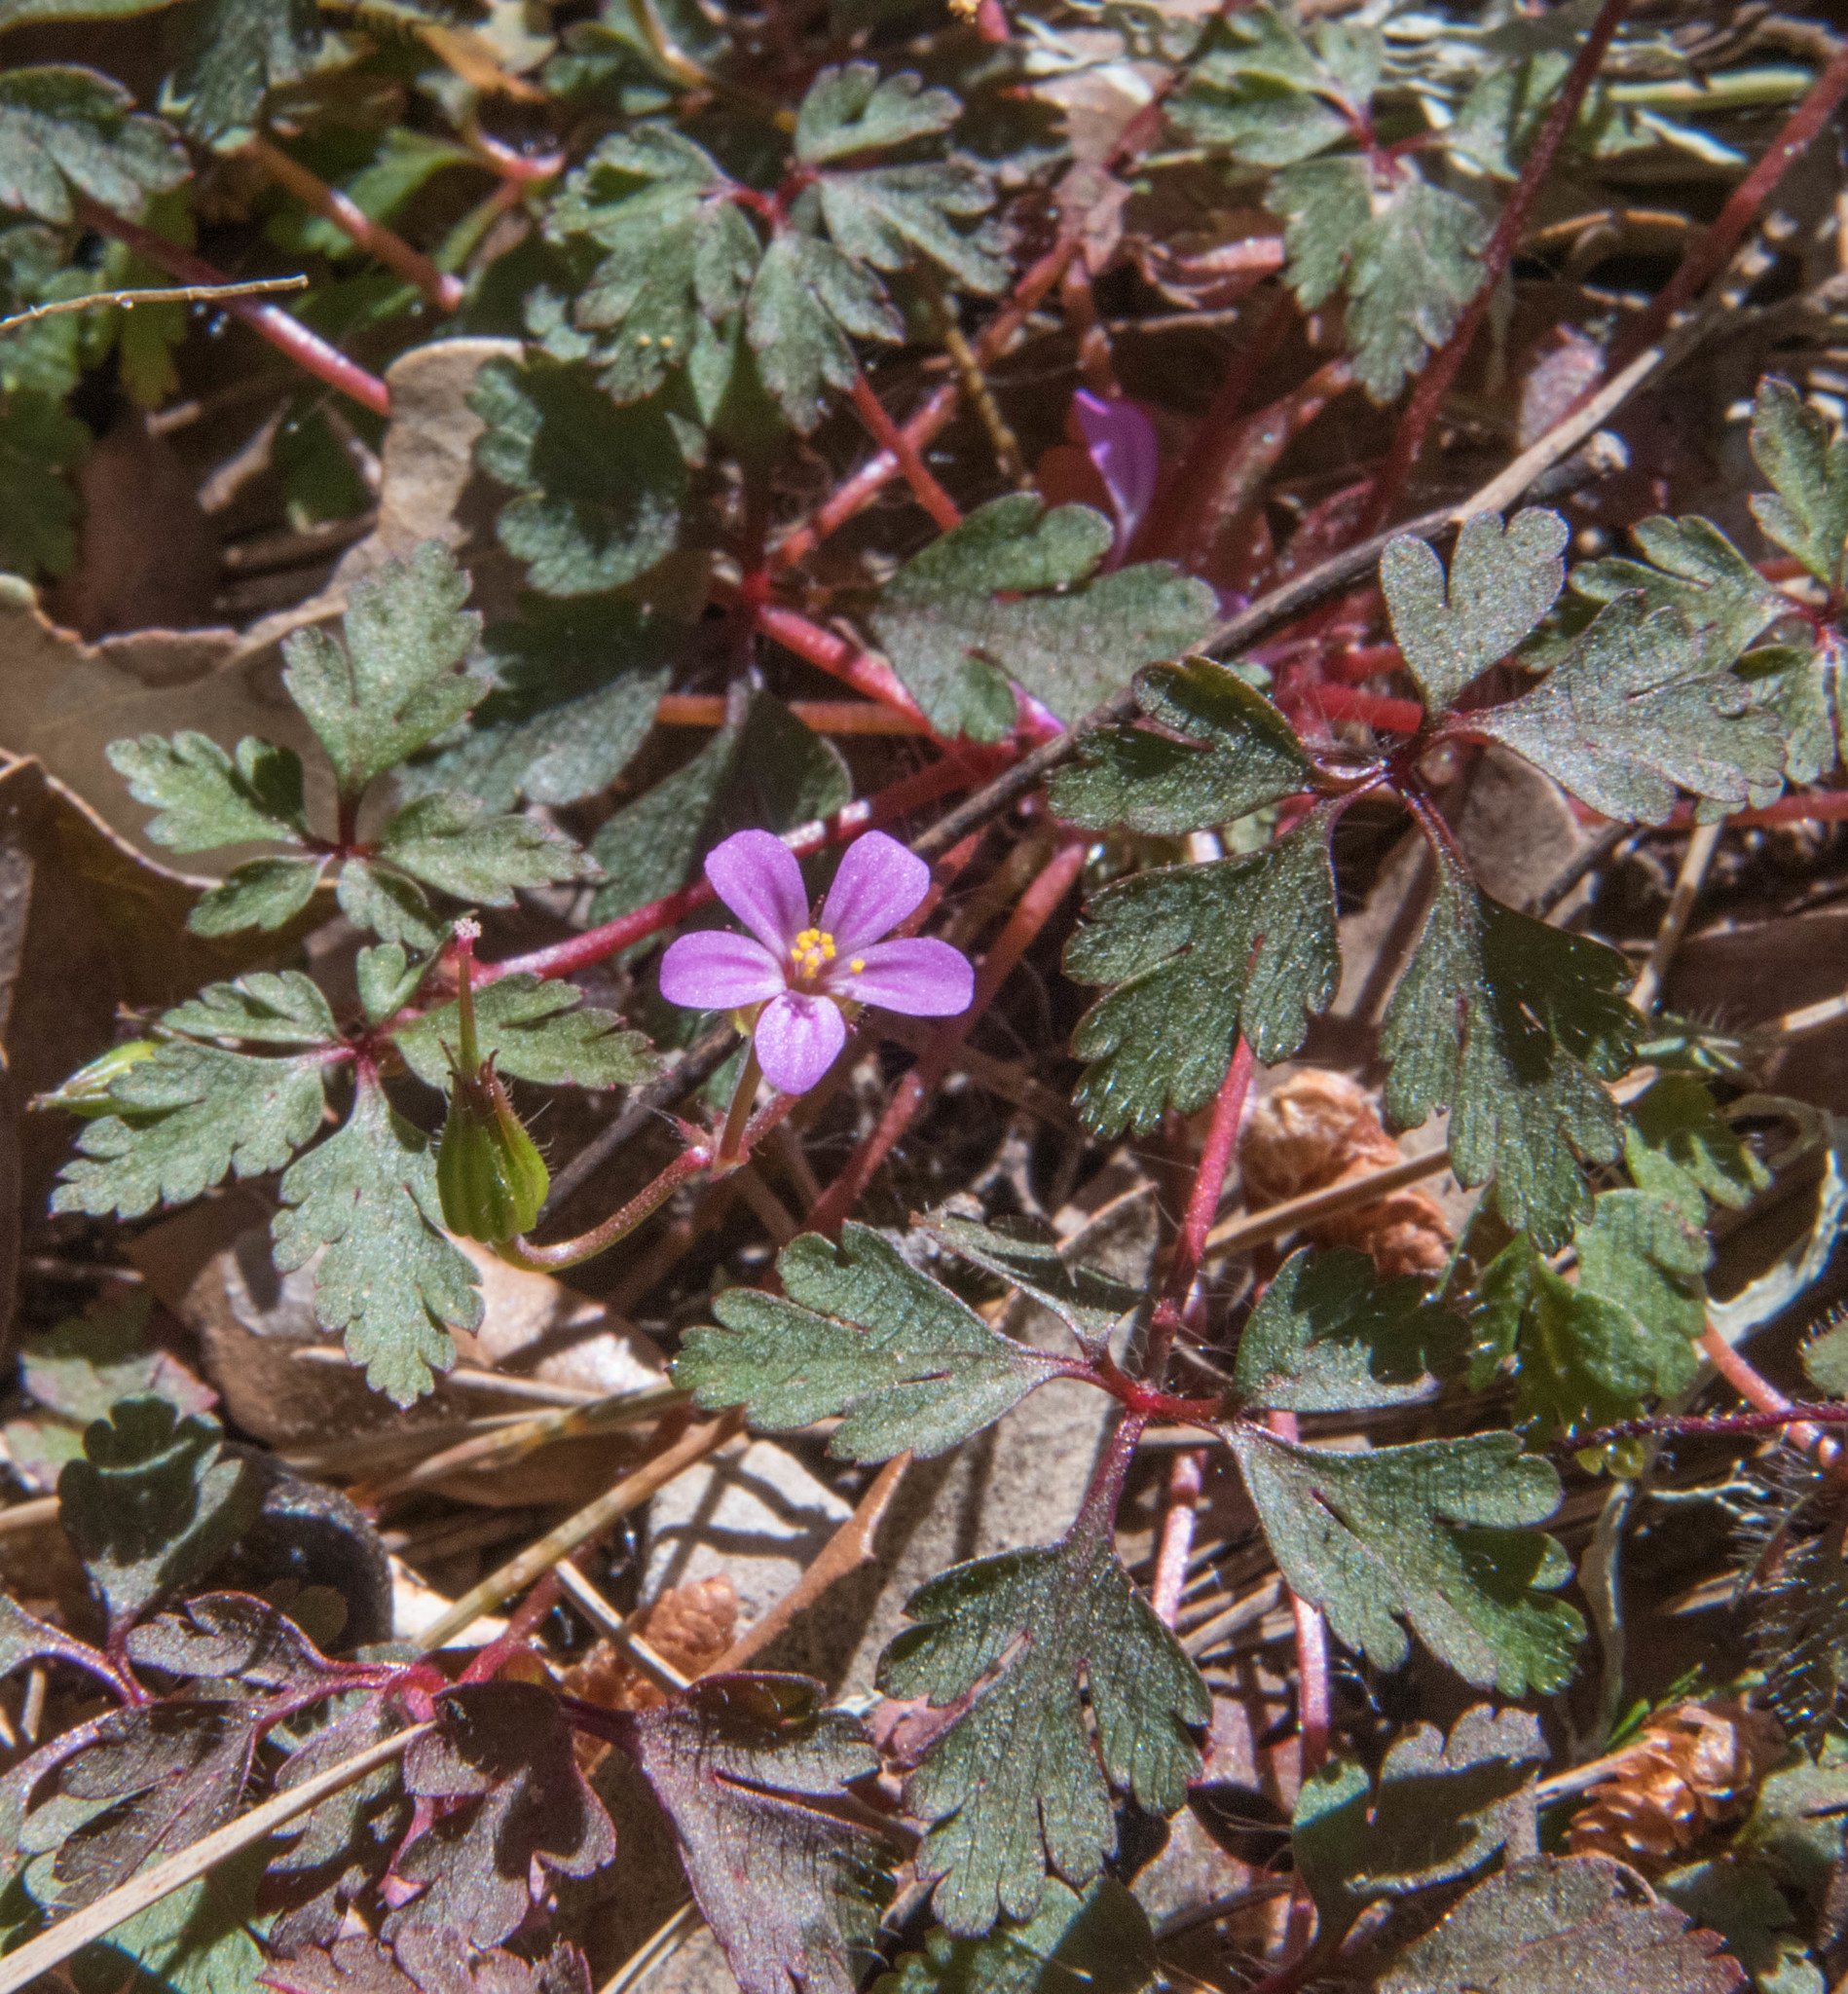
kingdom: Plantae
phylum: Tracheophyta
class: Magnoliopsida
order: Geraniales
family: Geraniaceae
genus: Geranium
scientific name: Geranium purpureum
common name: Little-robin
